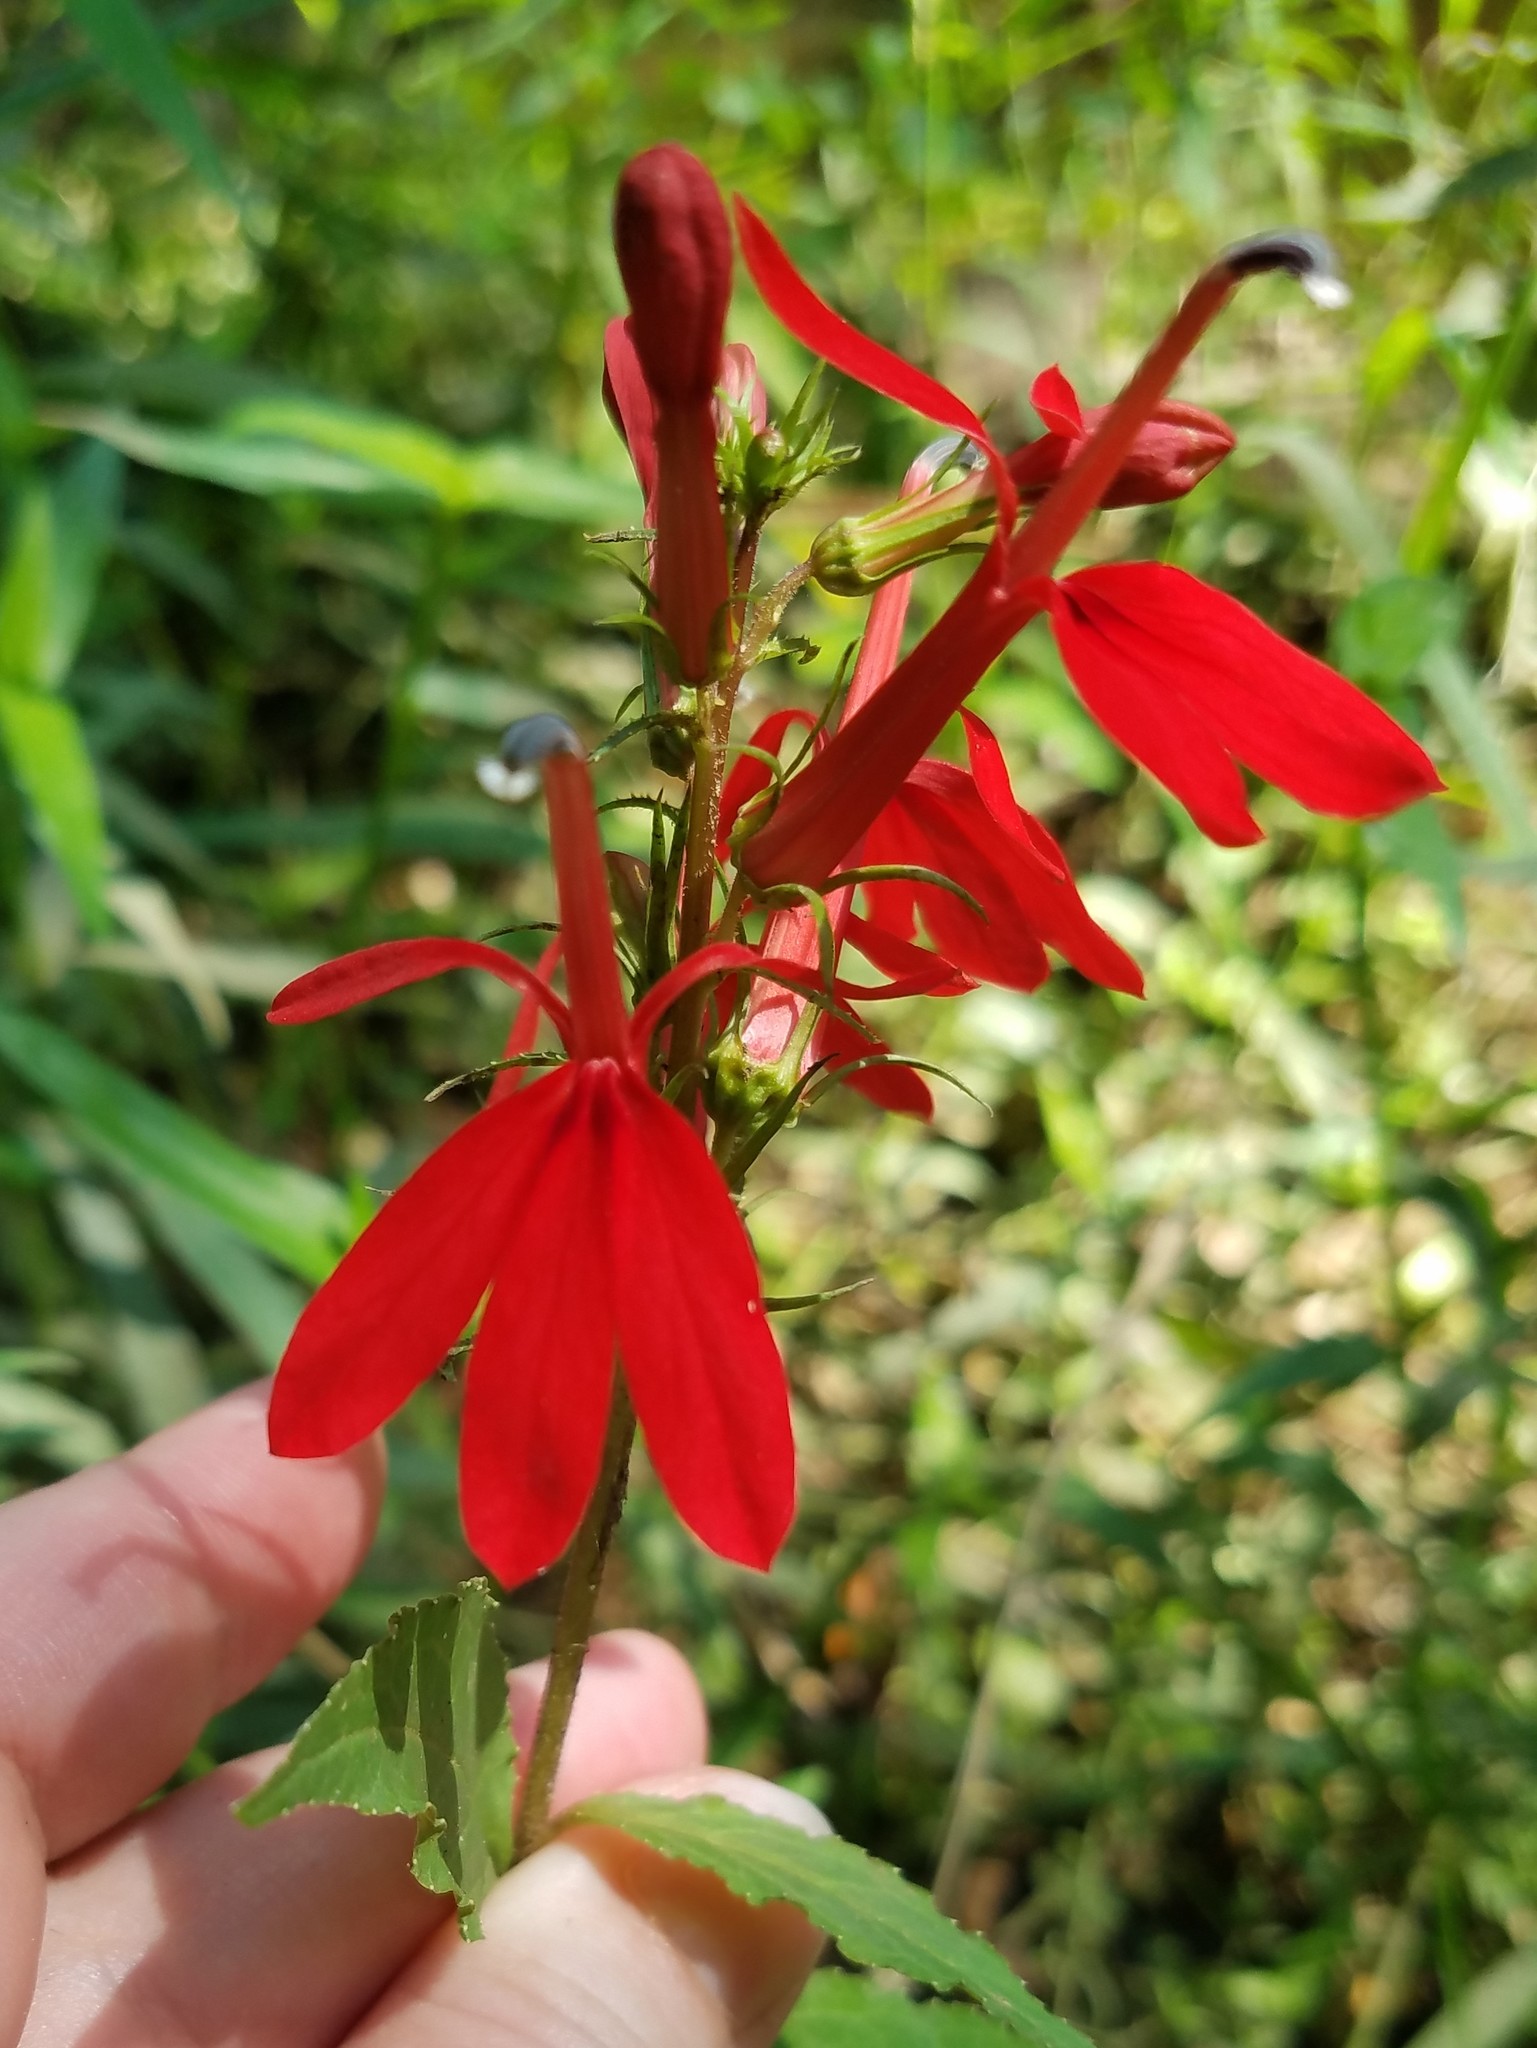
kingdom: Plantae
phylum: Tracheophyta
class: Magnoliopsida
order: Asterales
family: Campanulaceae
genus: Lobelia
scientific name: Lobelia cardinalis
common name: Cardinal flower
